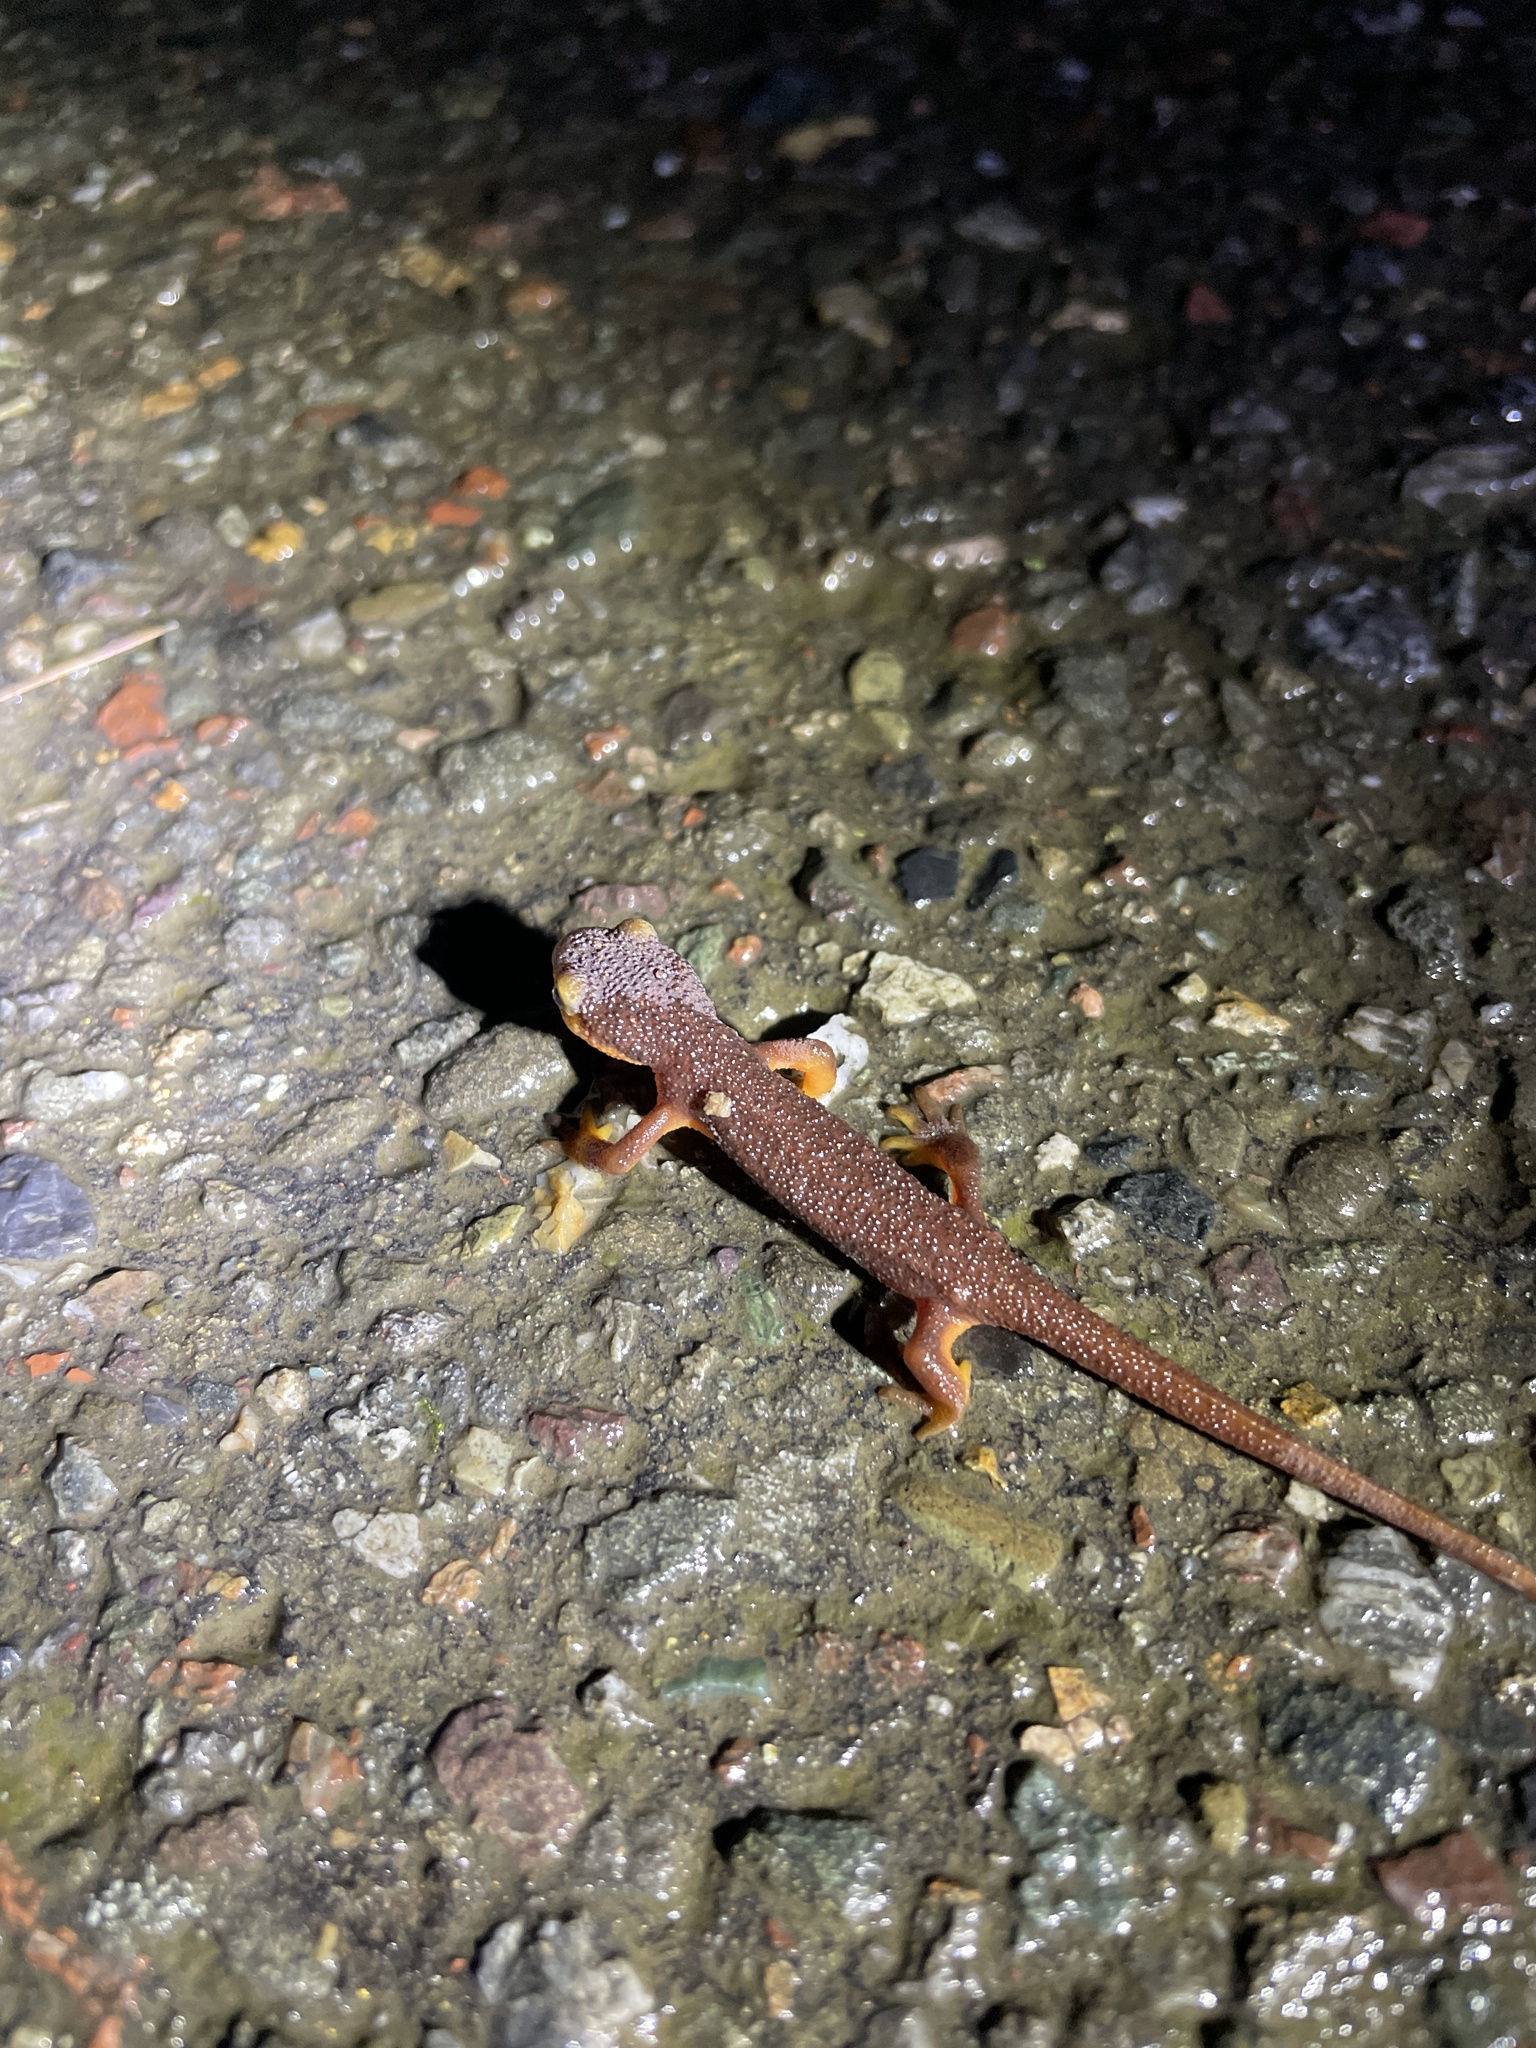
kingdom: Animalia
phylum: Chordata
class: Amphibia
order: Caudata
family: Salamandridae
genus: Taricha
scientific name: Taricha torosa
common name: California newt
